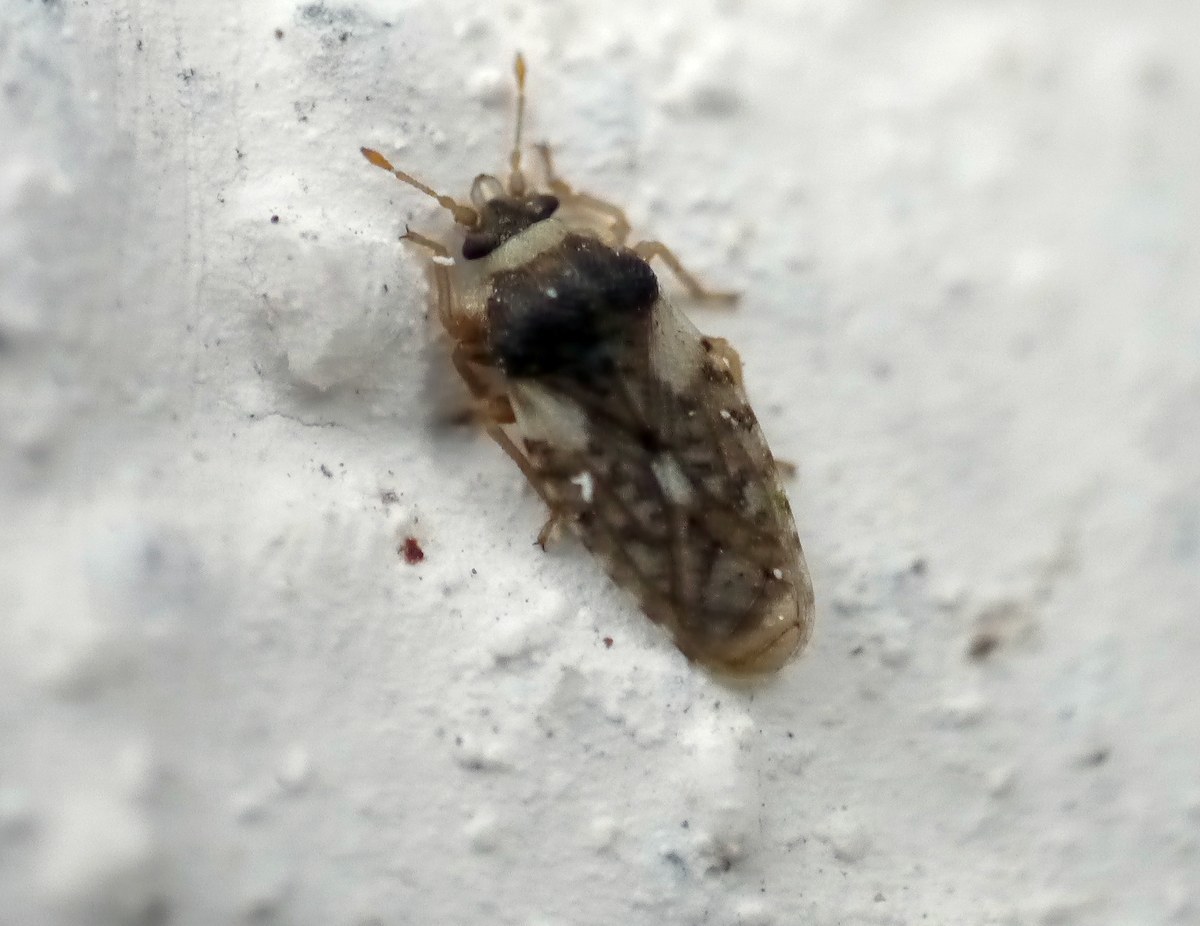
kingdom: Animalia
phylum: Arthropoda
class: Insecta
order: Hemiptera
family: Piesmatidae
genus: Piesma
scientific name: Piesma capitata
